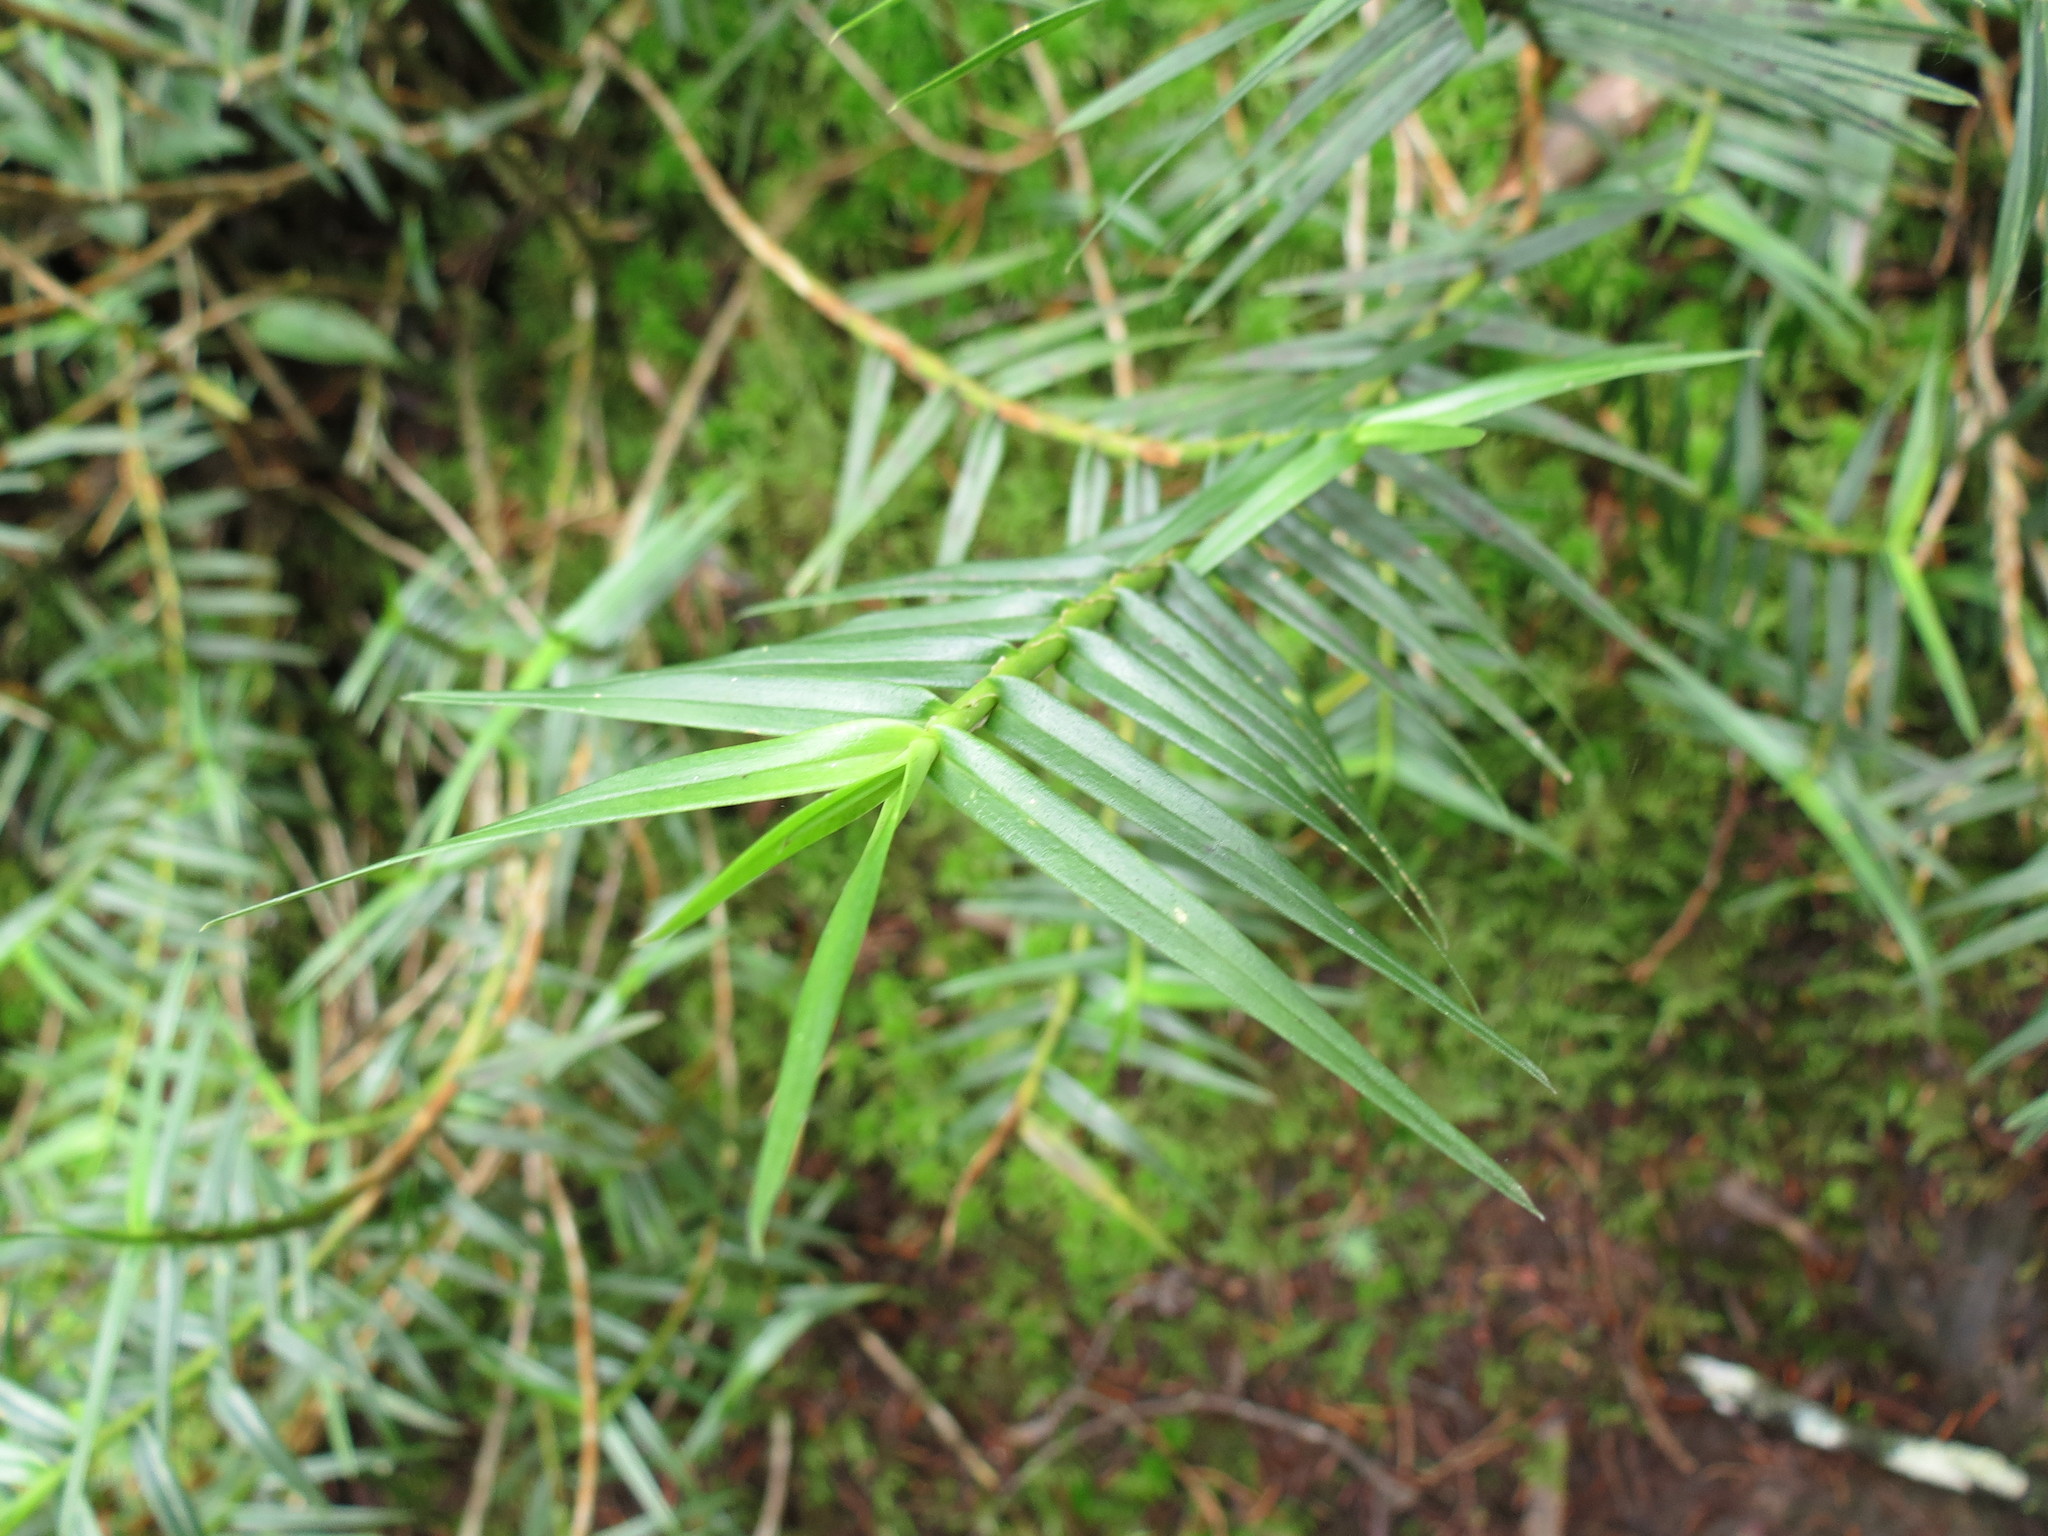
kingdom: Plantae
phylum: Tracheophyta
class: Liliopsida
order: Asparagales
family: Orchidaceae
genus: Maxillaria
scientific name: Maxillaria graminifolia
